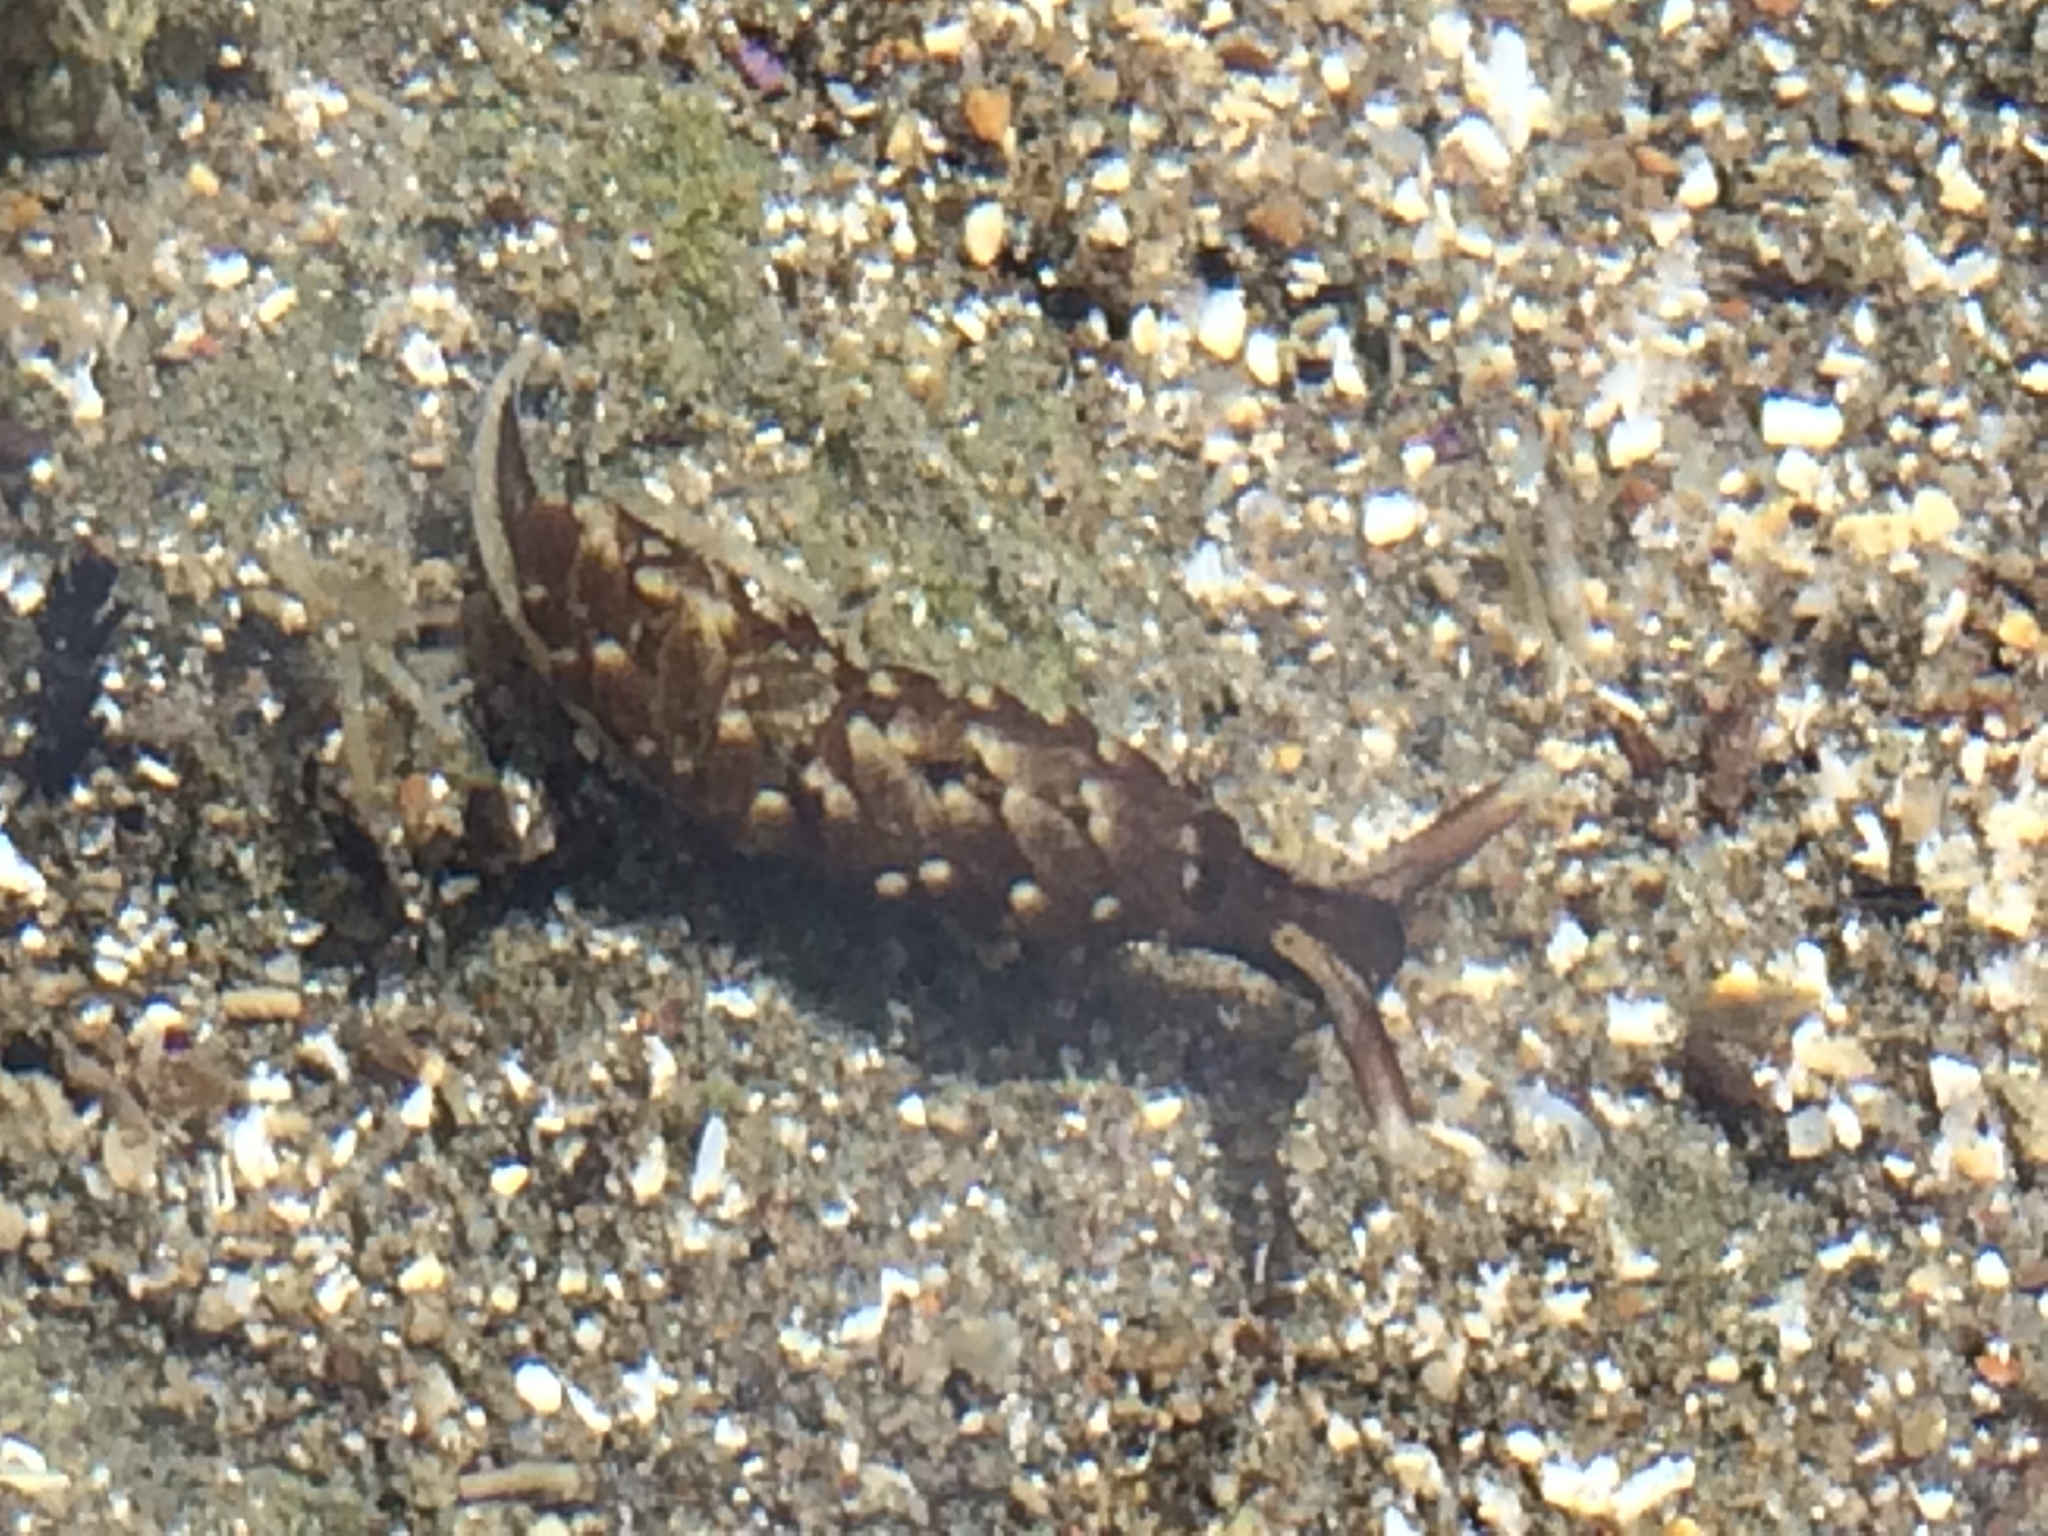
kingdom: Animalia
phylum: Mollusca
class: Gastropoda
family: Hermaeidae
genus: Aplysiopsis
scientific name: Aplysiopsis enteromorphae
